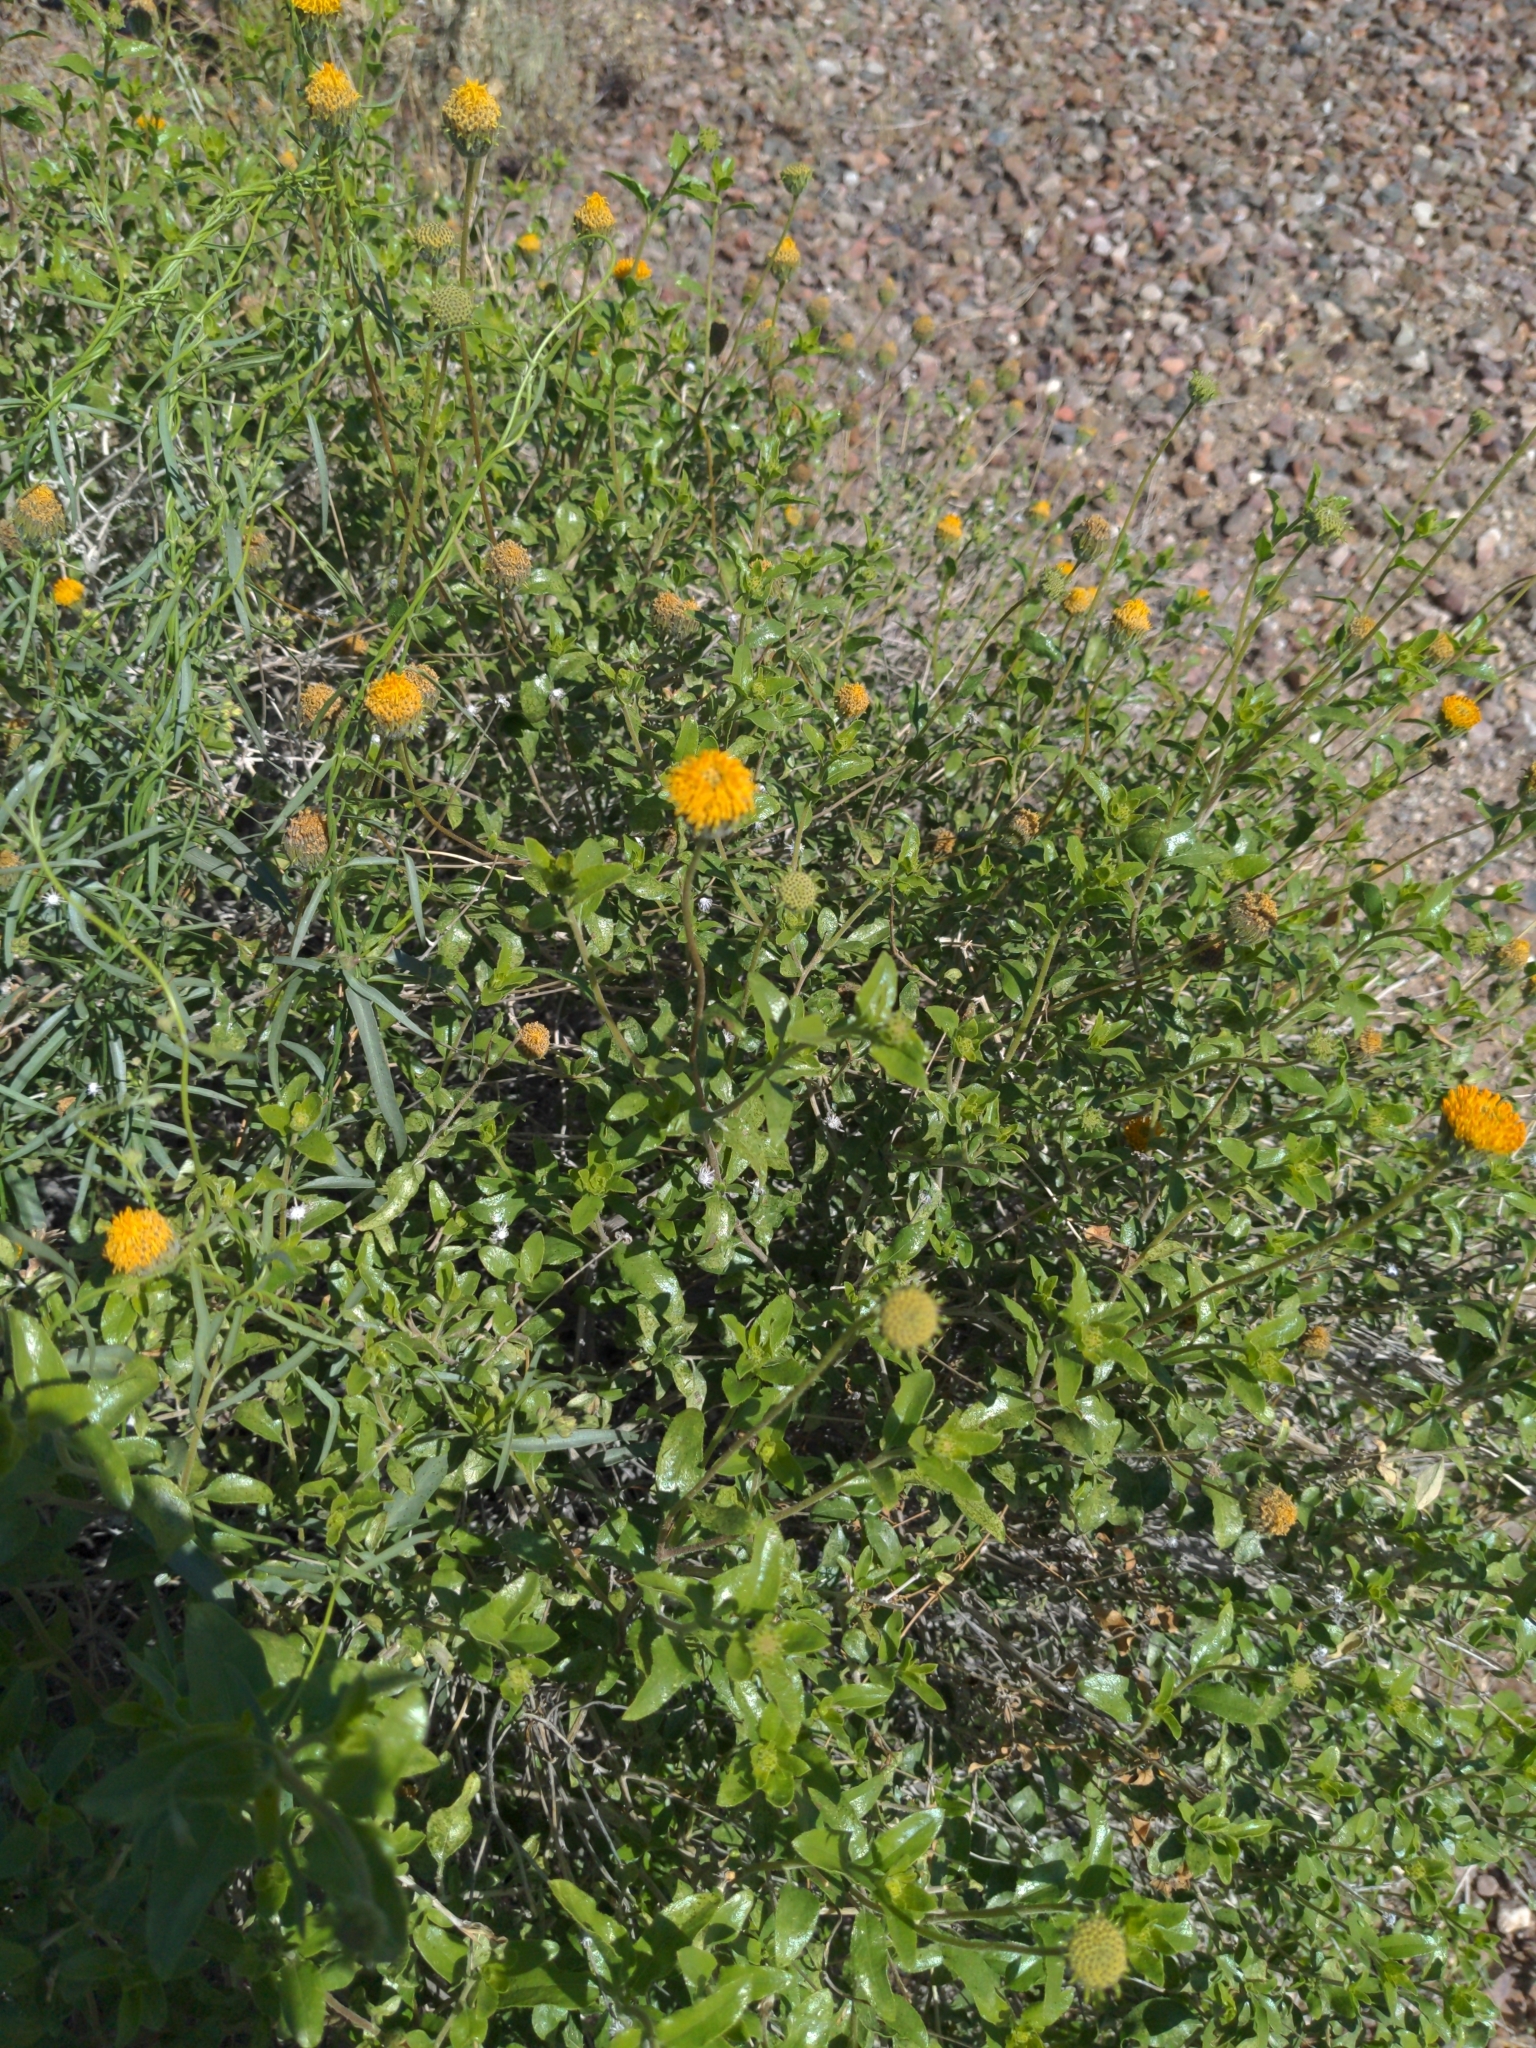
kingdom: Plantae
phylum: Tracheophyta
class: Magnoliopsida
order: Asterales
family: Asteraceae
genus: Encelia
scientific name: Encelia frutescens
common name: Bush encelia
